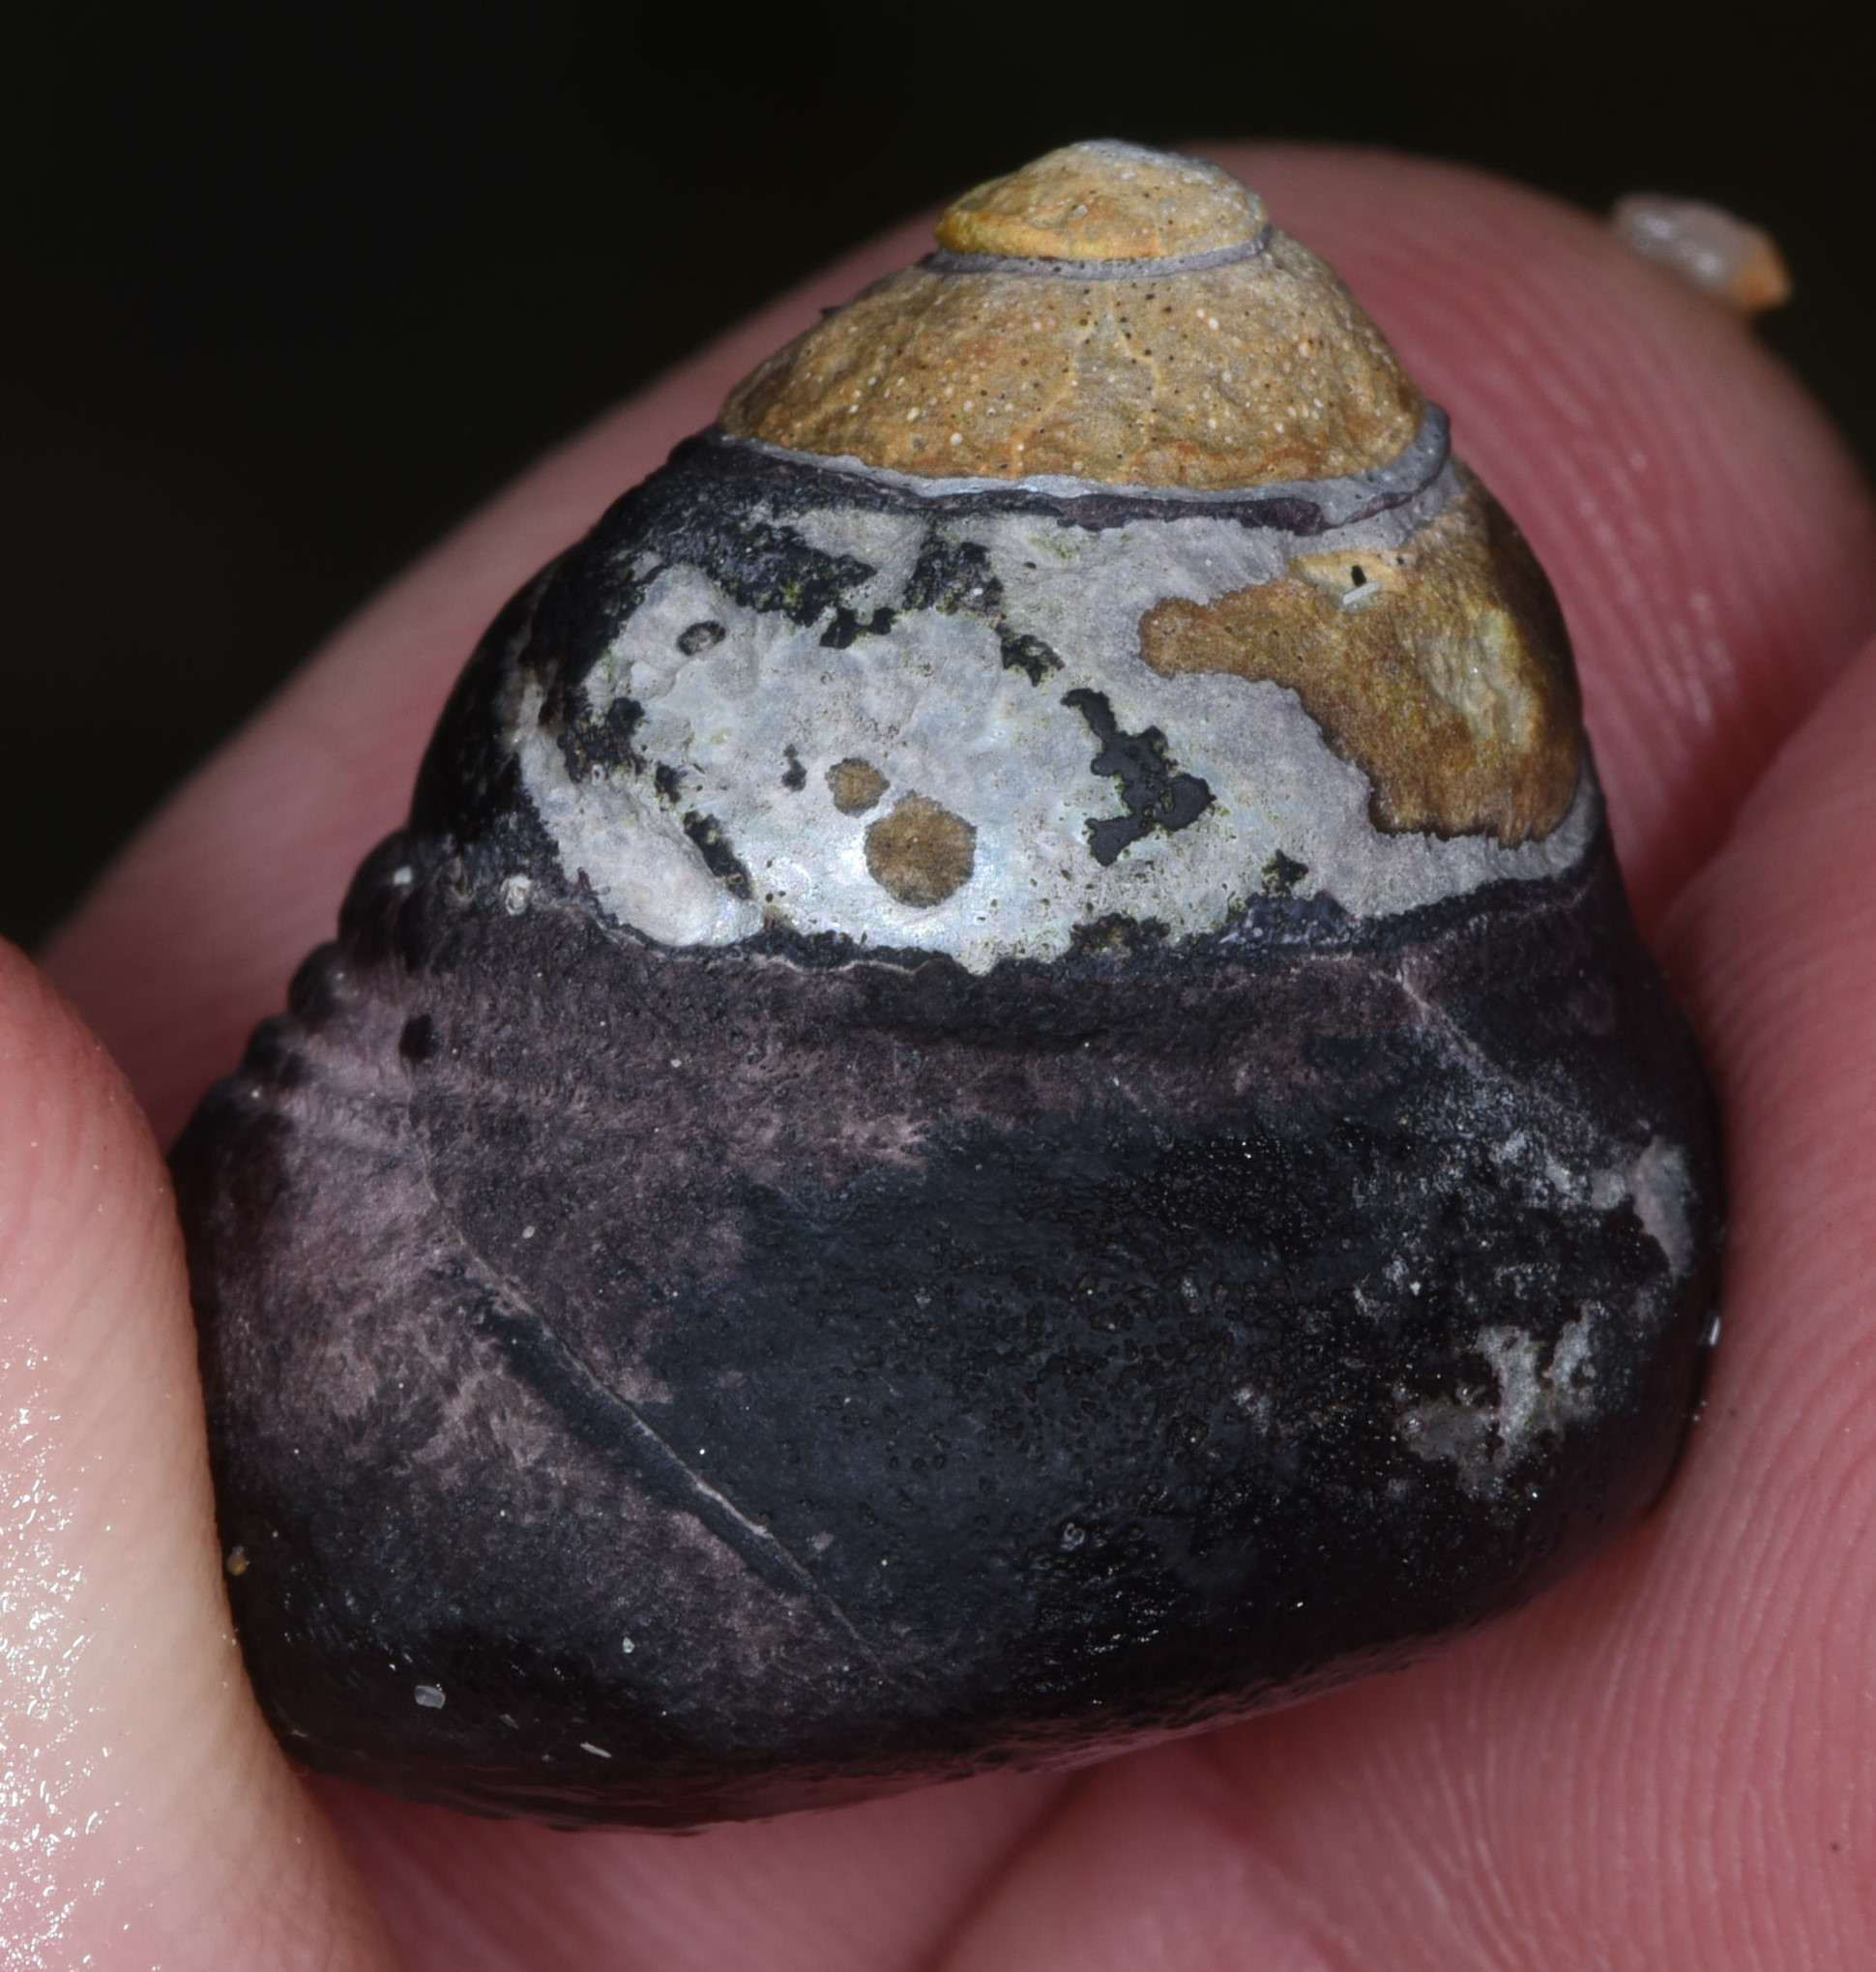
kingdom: Animalia
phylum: Mollusca
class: Gastropoda
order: Trochida
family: Tegulidae
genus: Tegula
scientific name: Tegula funebralis
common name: Black tegula
